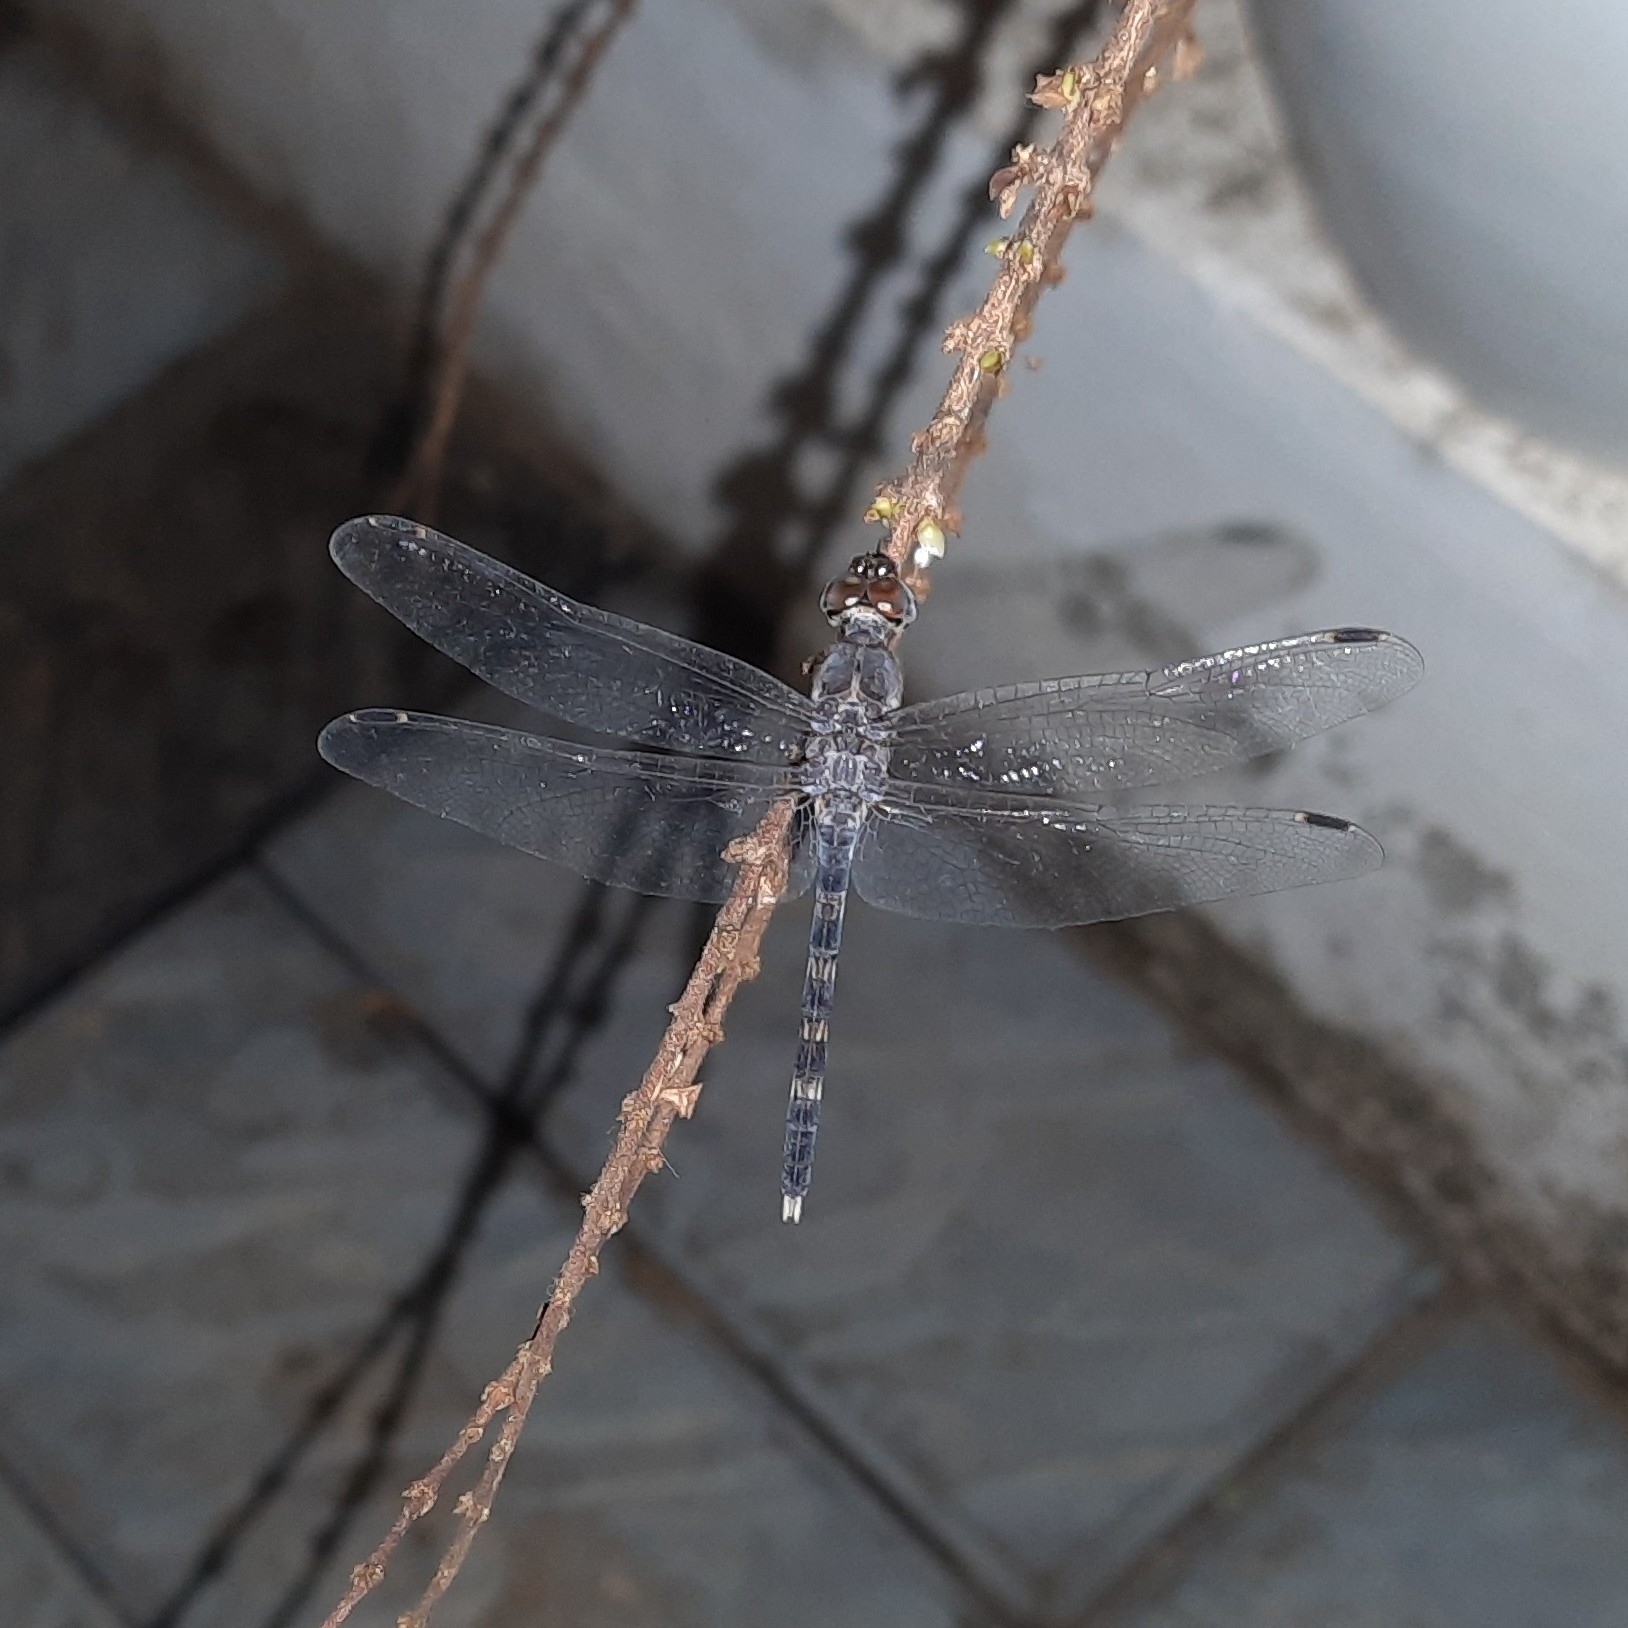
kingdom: Animalia
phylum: Arthropoda
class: Insecta
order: Odonata
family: Libellulidae
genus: Bradinopyga
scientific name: Bradinopyga geminata
